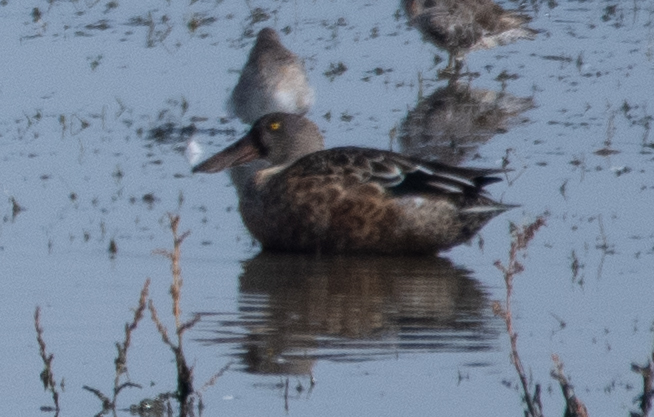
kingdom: Animalia
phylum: Chordata
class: Aves
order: Anseriformes
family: Anatidae
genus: Spatula
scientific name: Spatula clypeata
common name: Northern shoveler
